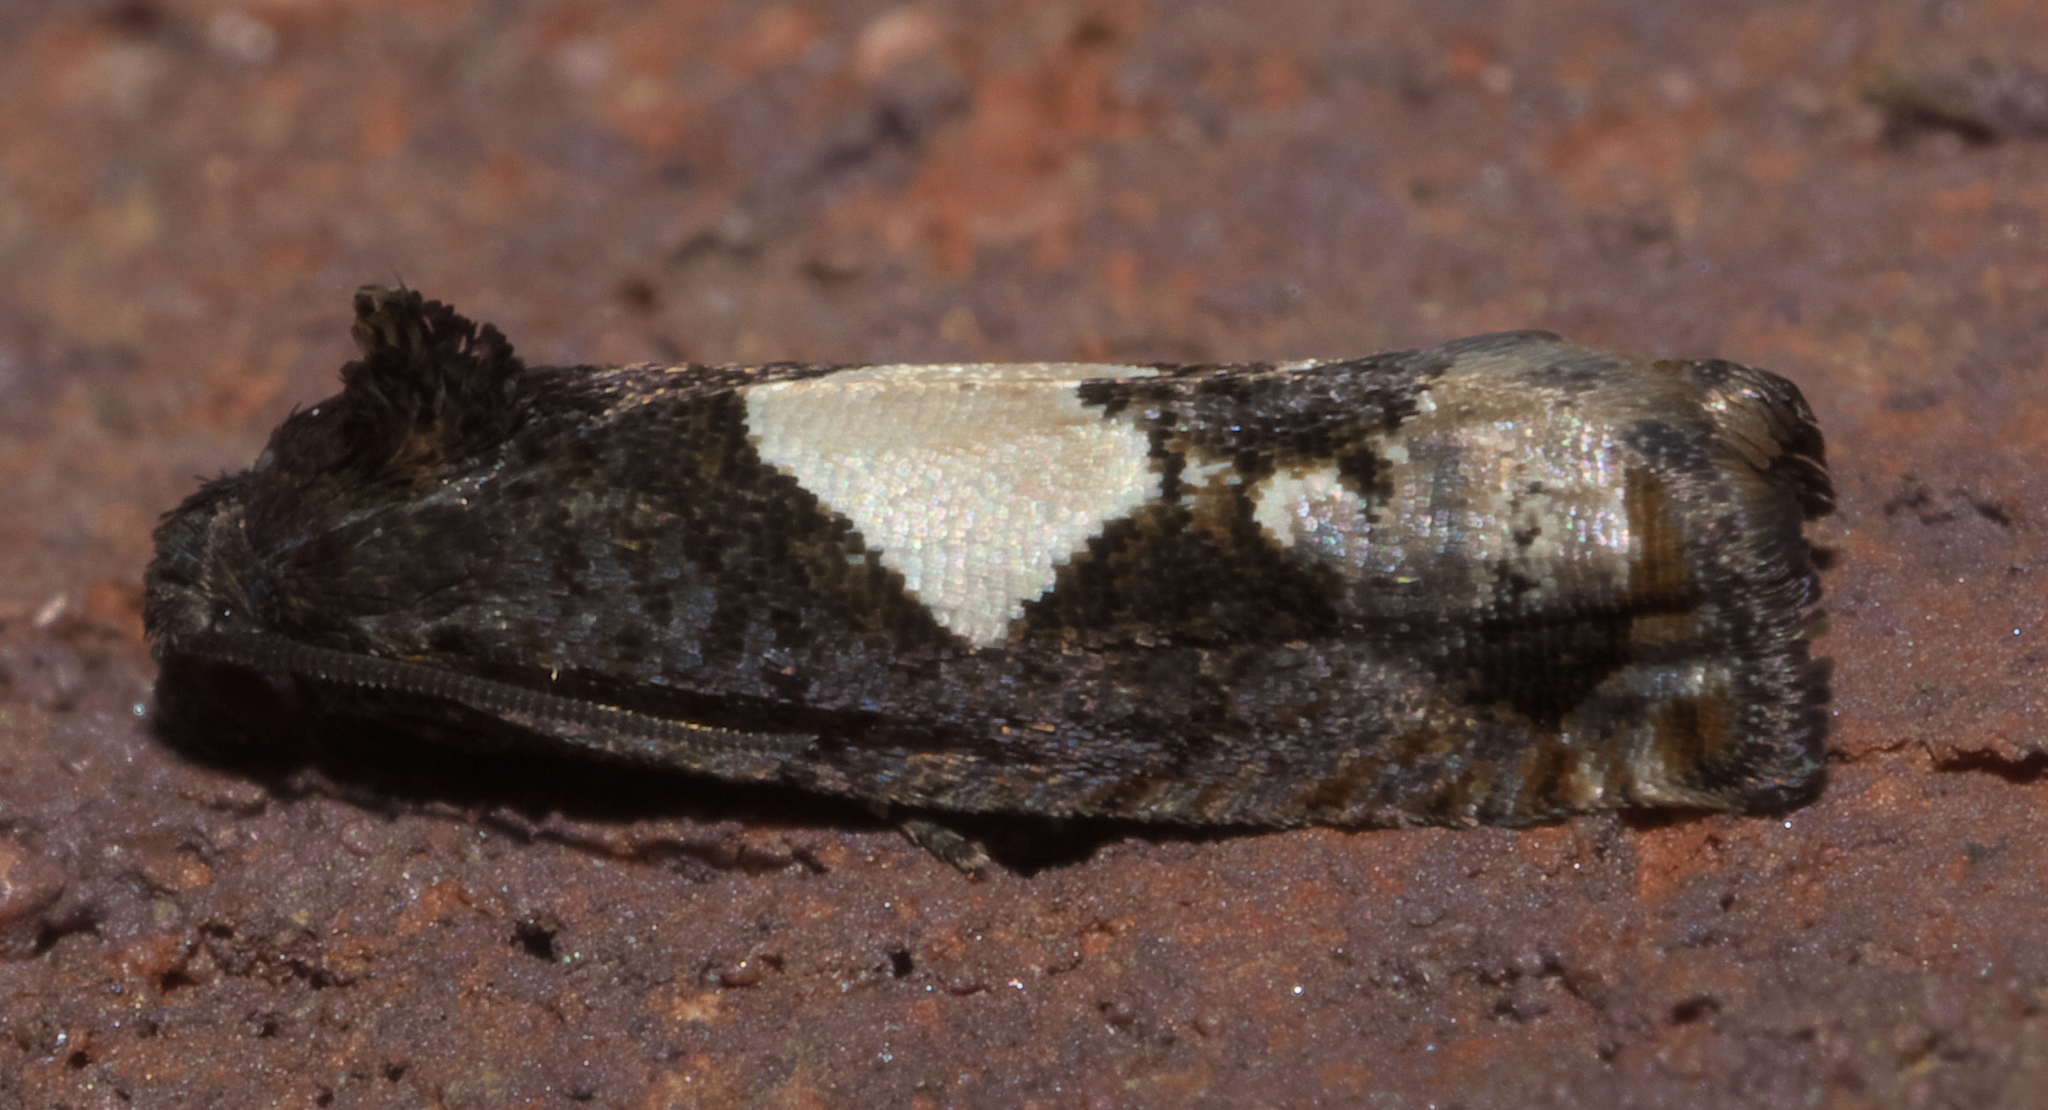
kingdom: Animalia
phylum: Arthropoda
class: Insecta
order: Lepidoptera
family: Tortricidae
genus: Epiblema
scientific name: Epiblema otiosana
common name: Bidens borer moth
